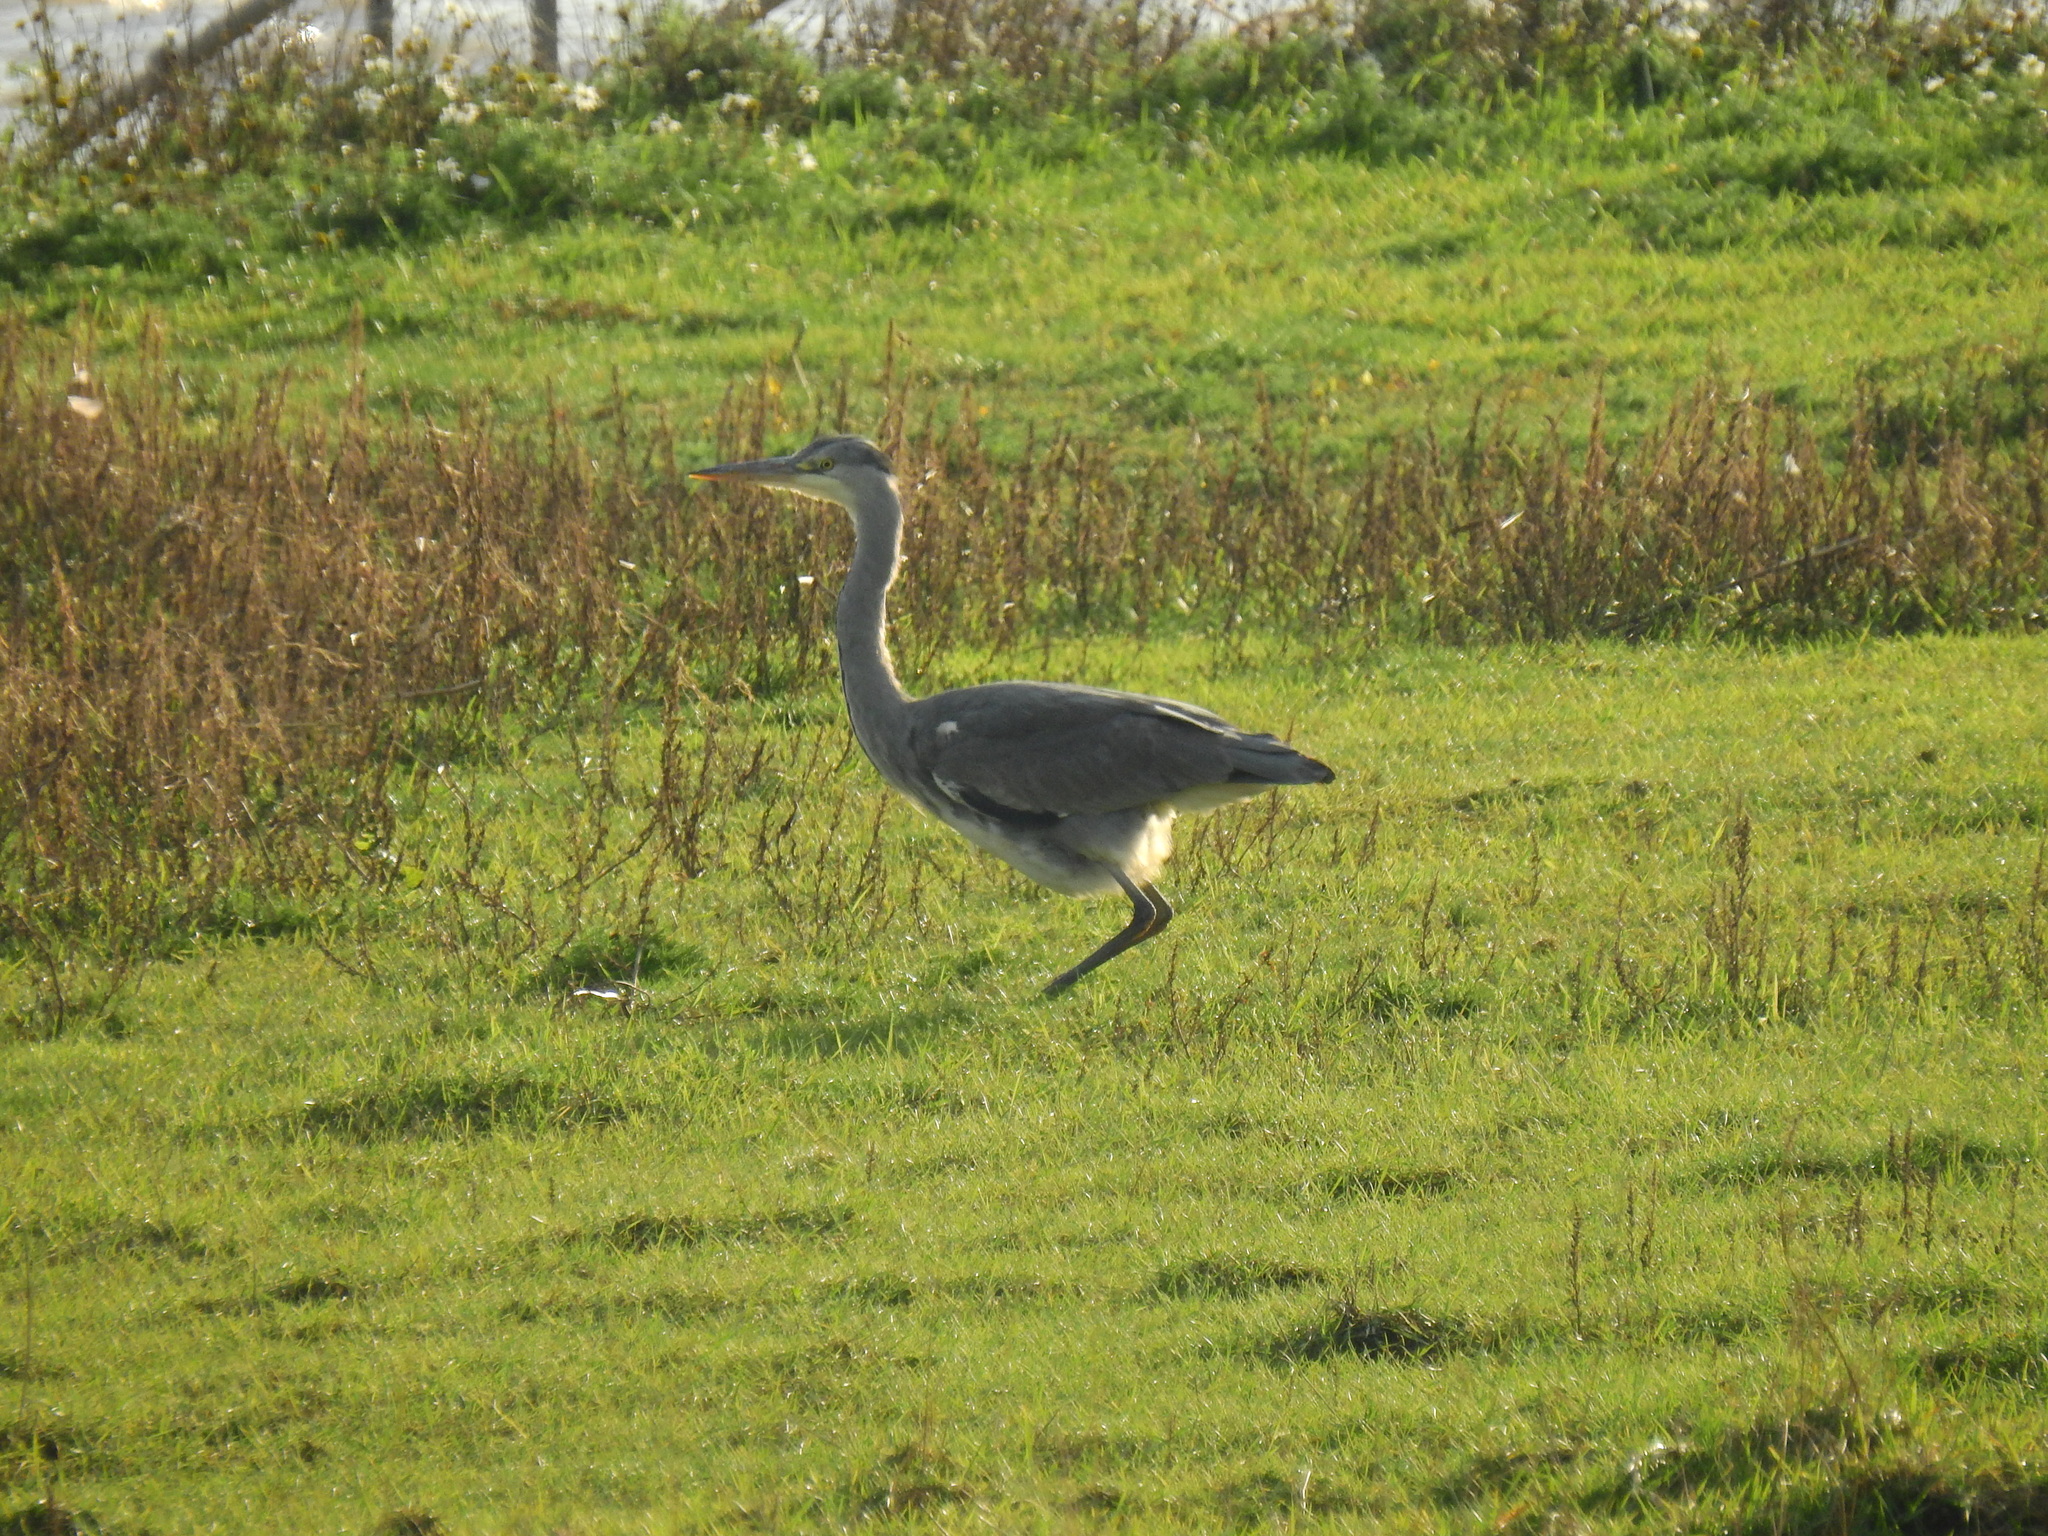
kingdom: Animalia
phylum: Chordata
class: Aves
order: Pelecaniformes
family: Ardeidae
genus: Ardea
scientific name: Ardea cinerea
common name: Grey heron
